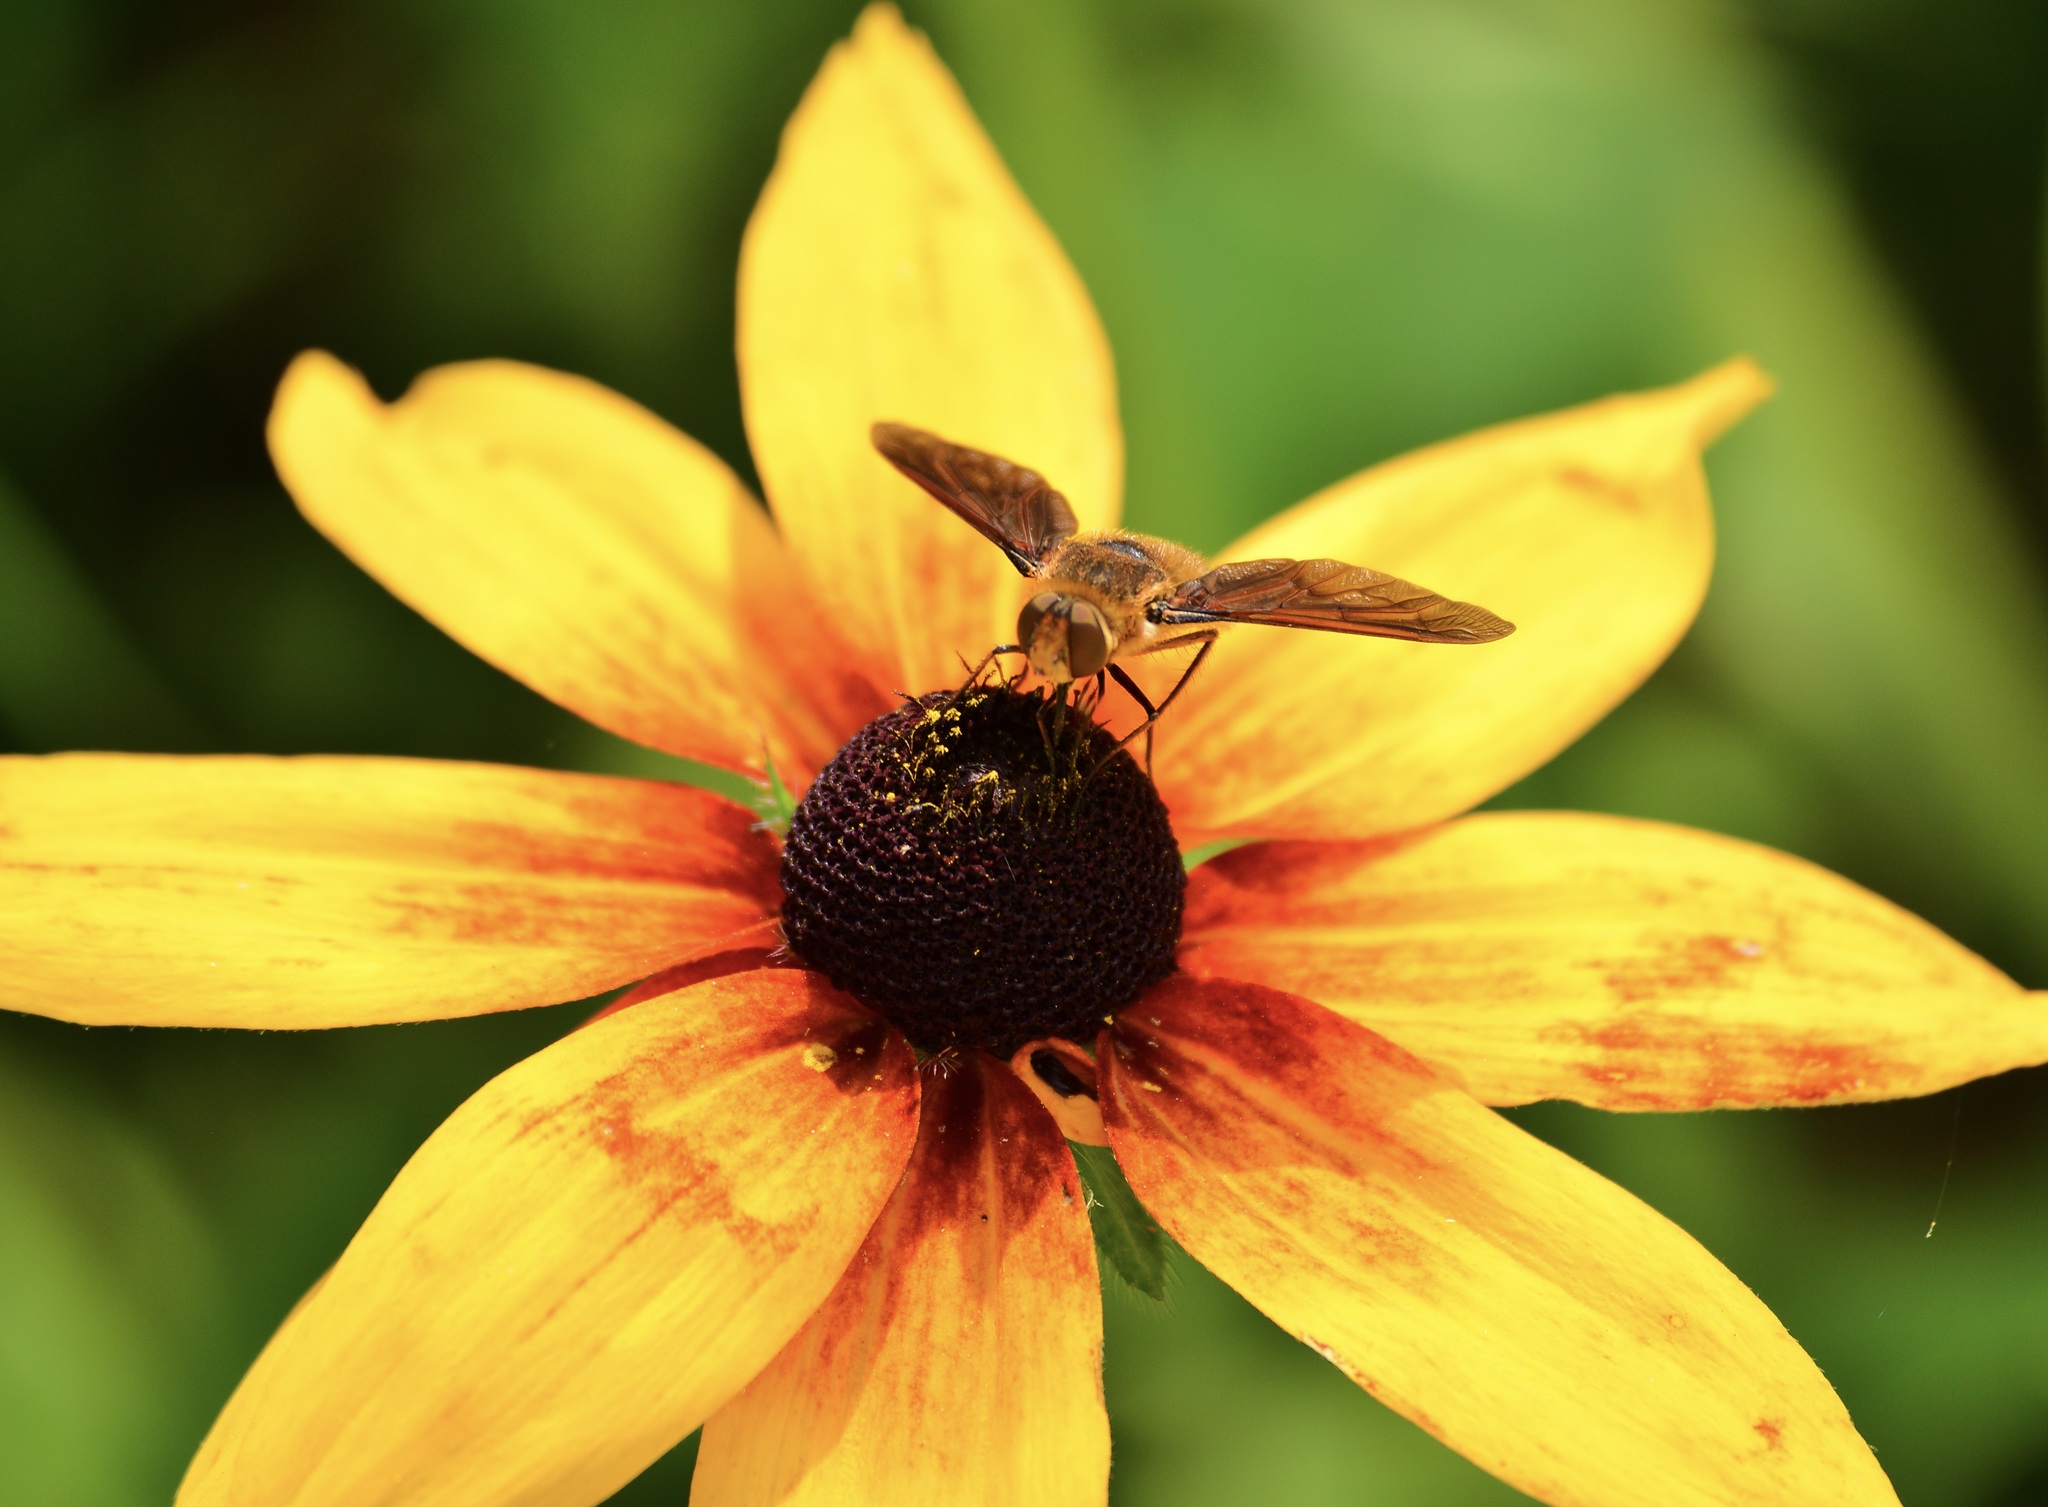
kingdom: Animalia
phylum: Arthropoda
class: Insecta
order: Diptera
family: Bombyliidae
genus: Poecilanthrax
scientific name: Poecilanthrax tegminipennis
